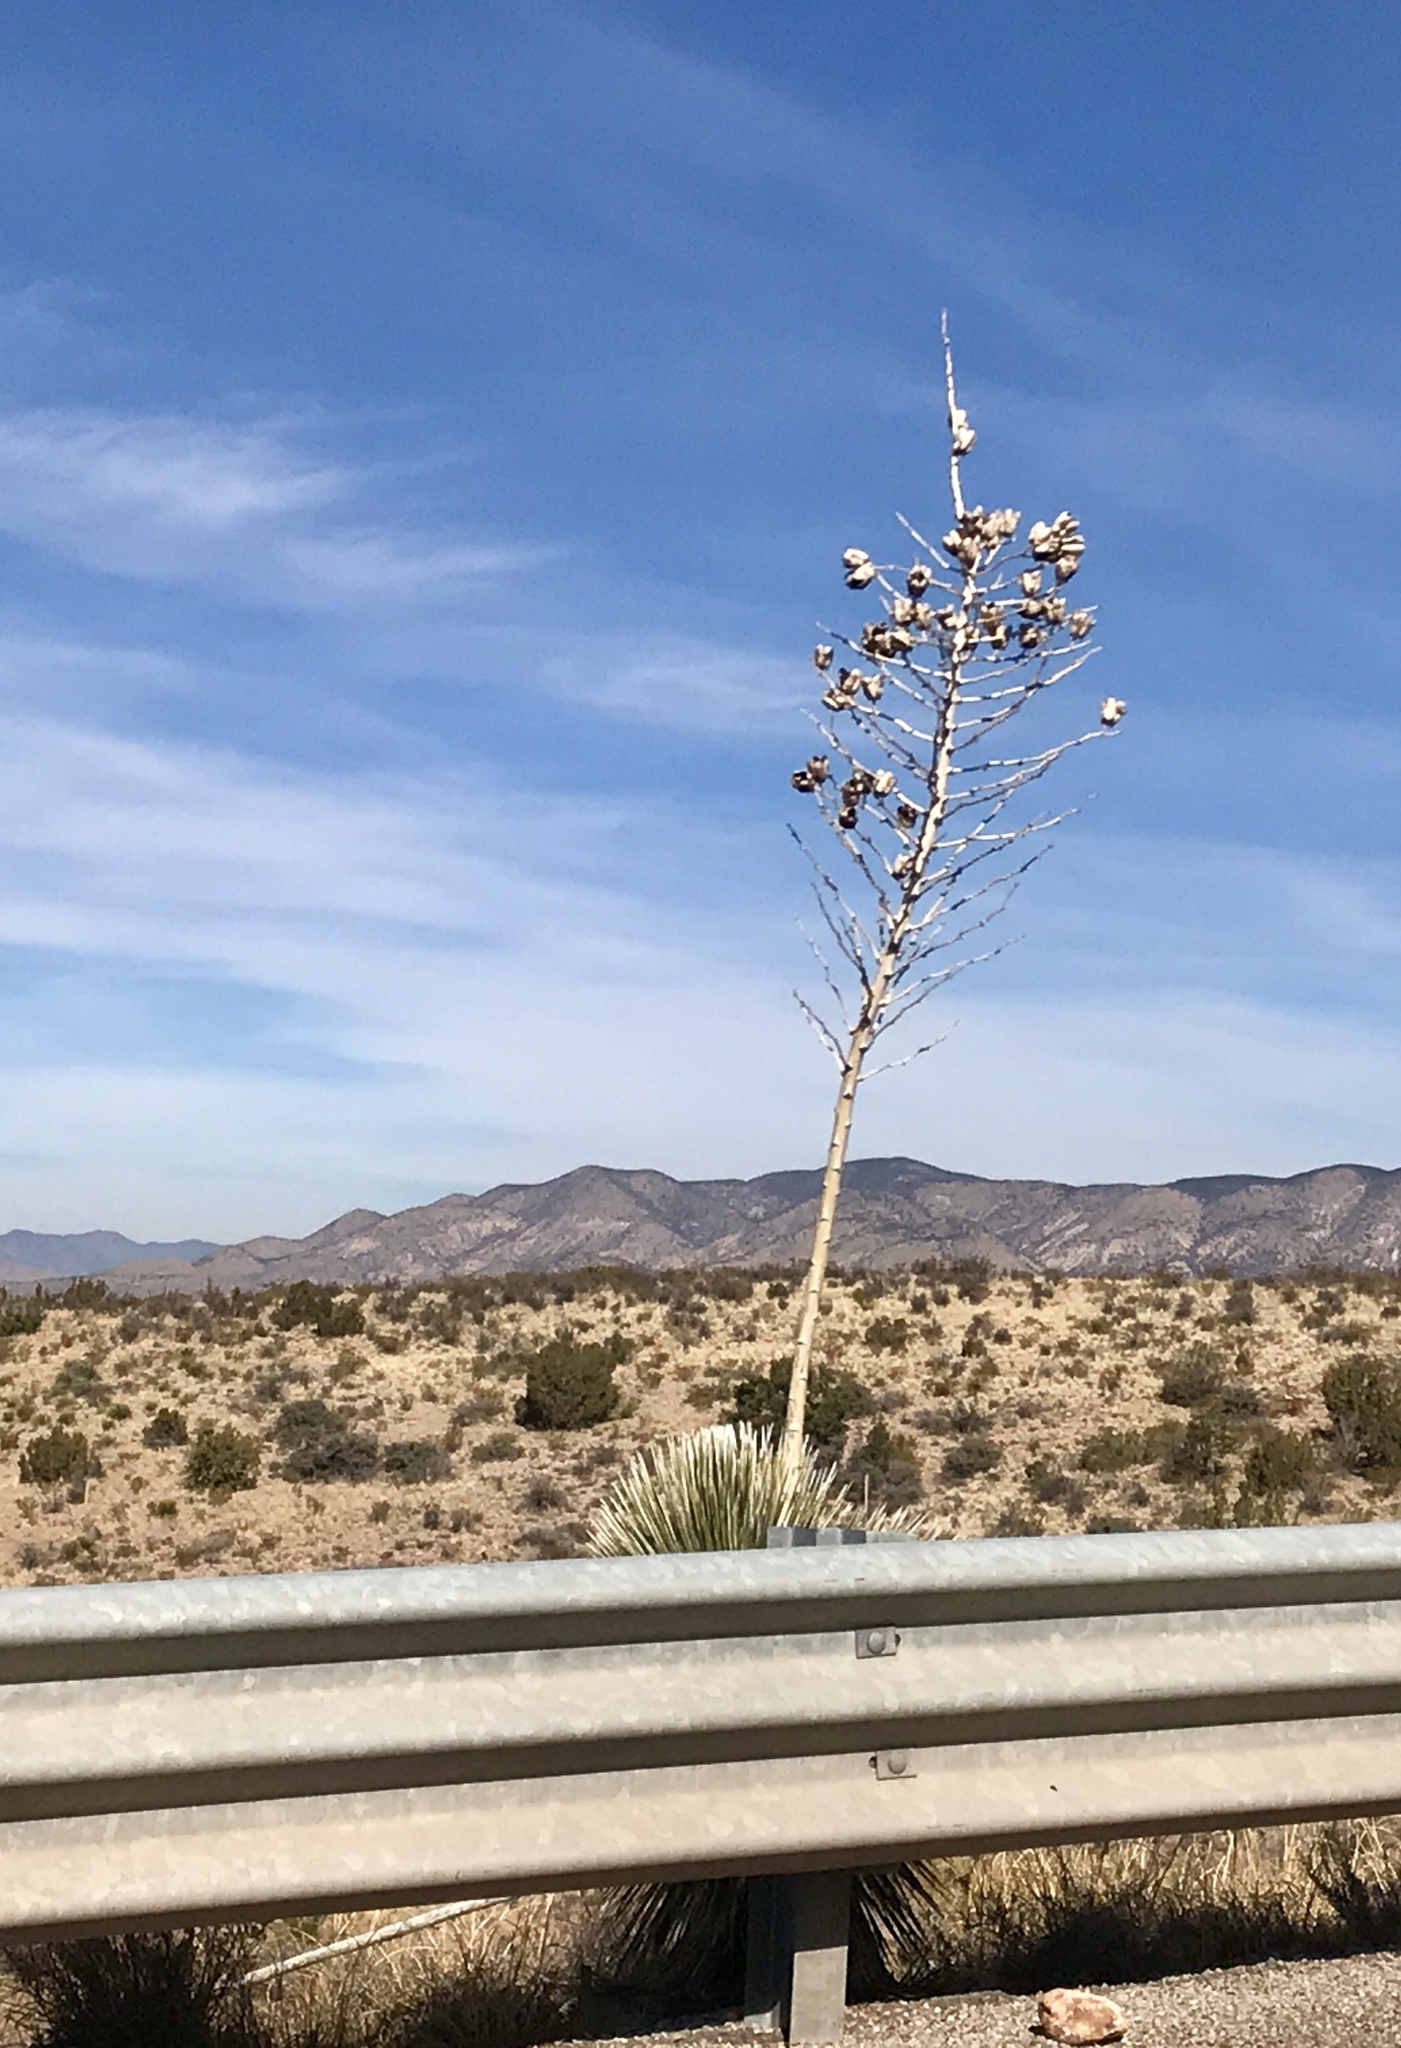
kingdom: Plantae
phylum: Tracheophyta
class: Liliopsida
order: Asparagales
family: Asparagaceae
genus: Yucca
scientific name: Yucca elata
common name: Palmella
